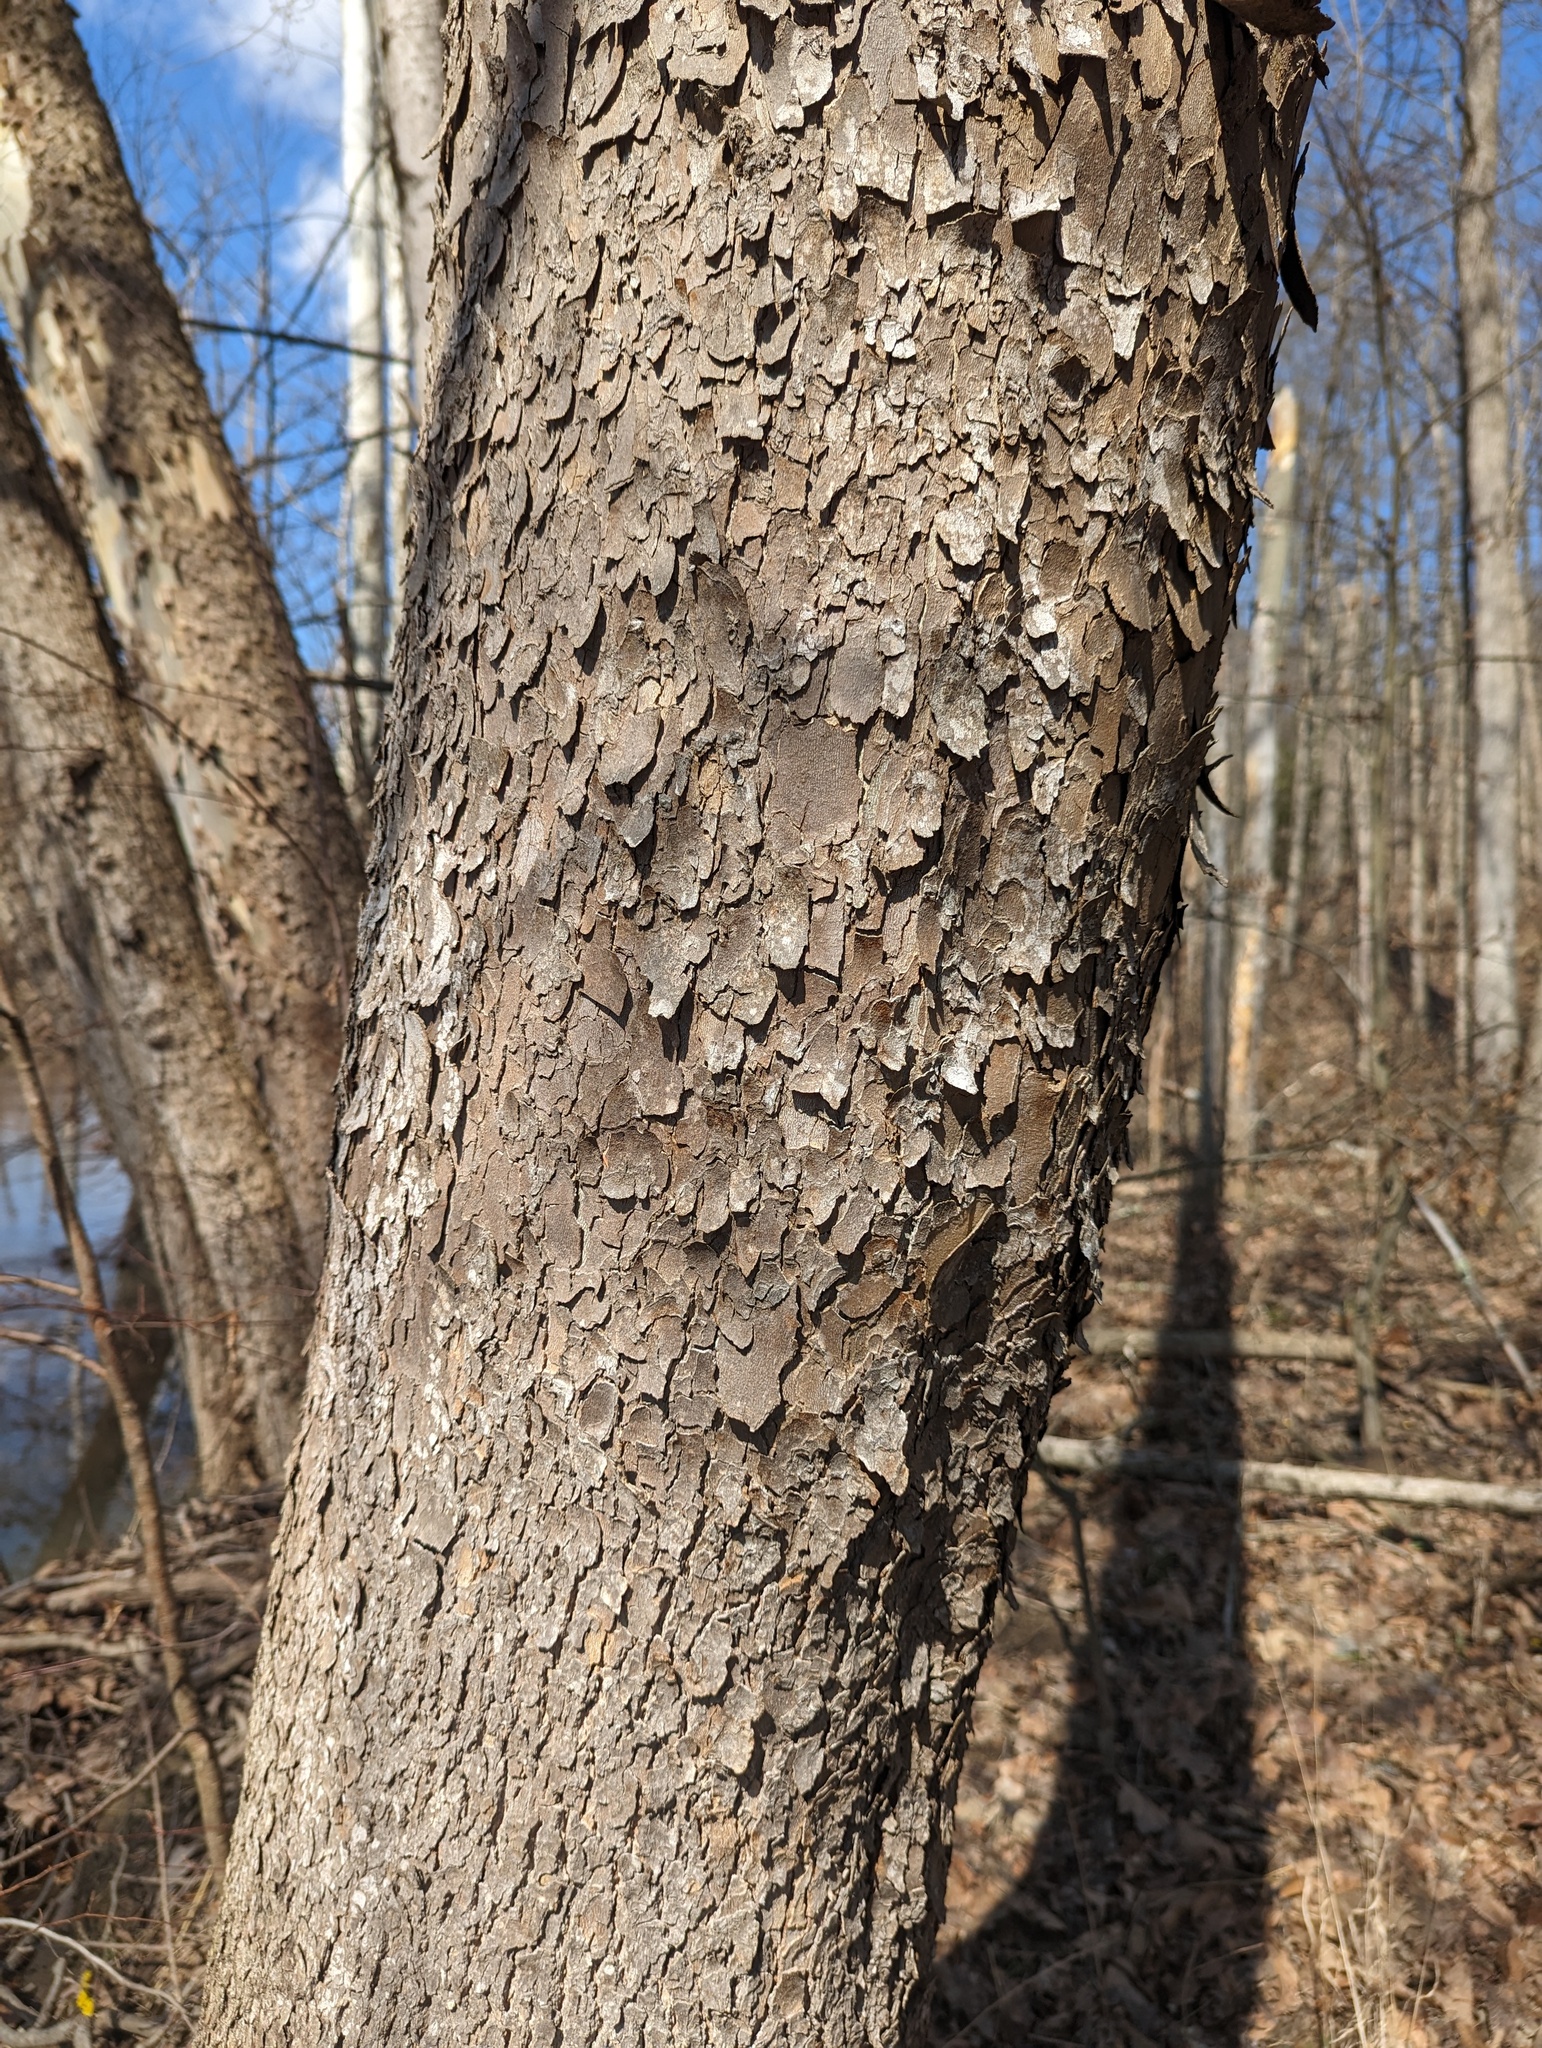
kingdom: Plantae
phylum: Tracheophyta
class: Magnoliopsida
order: Proteales
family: Platanaceae
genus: Platanus
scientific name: Platanus occidentalis
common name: American sycamore
